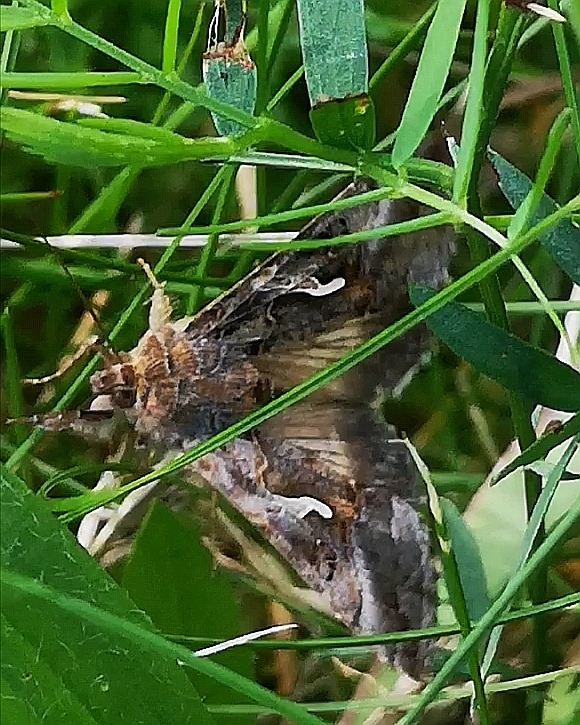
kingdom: Animalia
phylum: Arthropoda
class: Insecta
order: Lepidoptera
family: Noctuidae
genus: Autographa
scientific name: Autographa gamma
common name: Silver y
